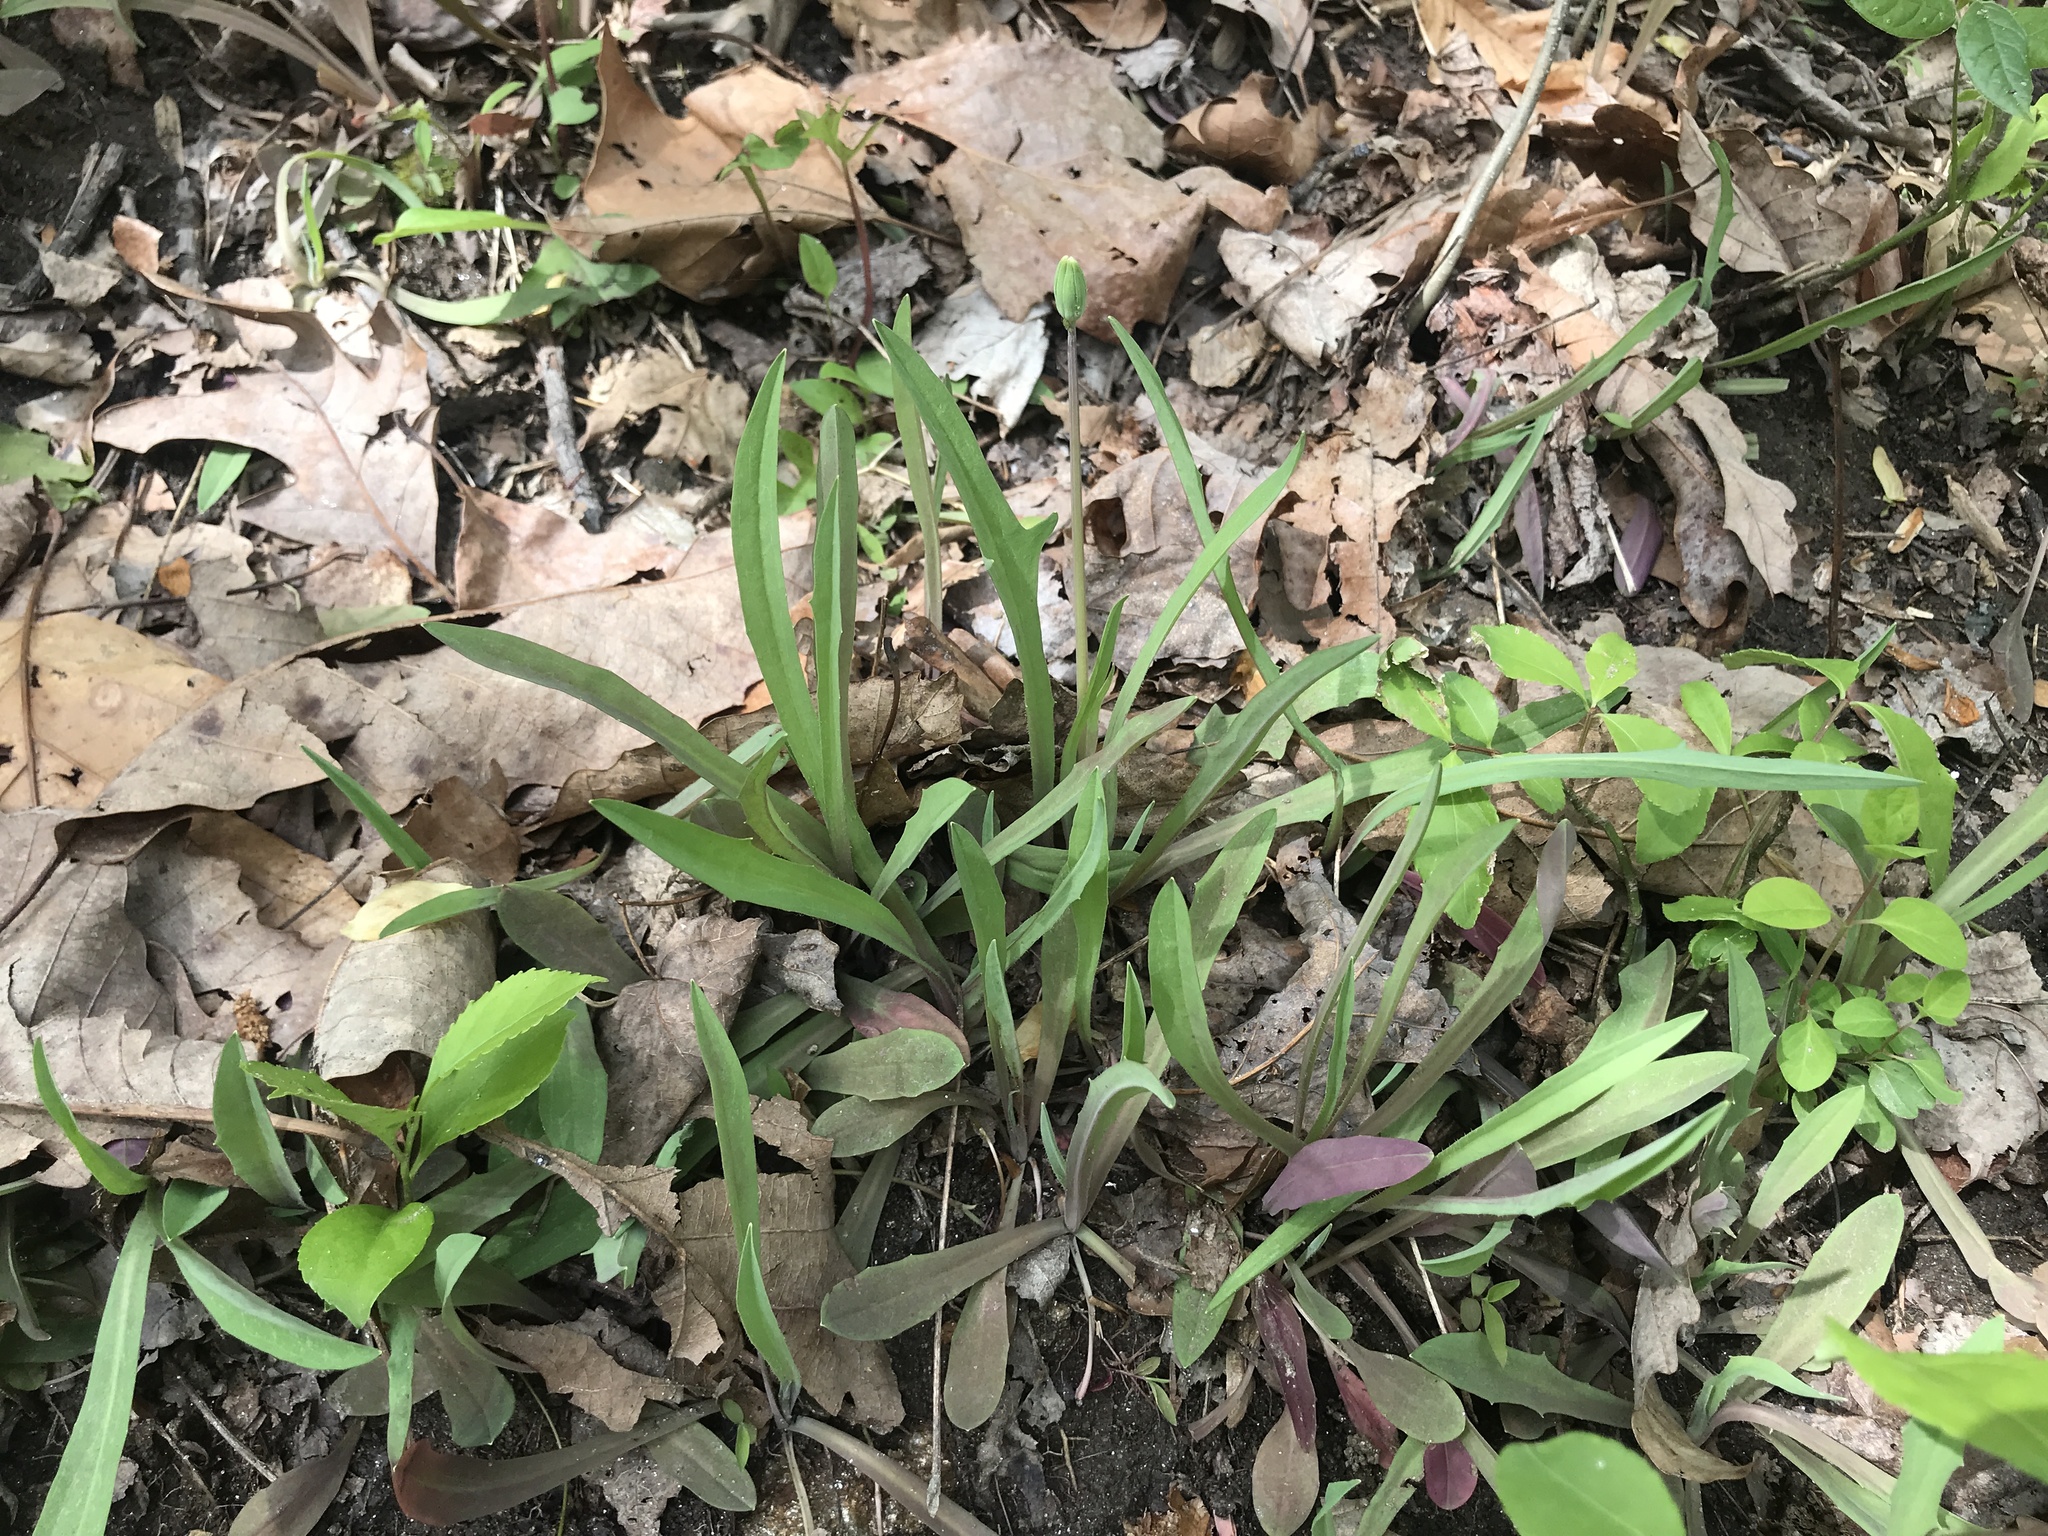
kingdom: Plantae
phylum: Tracheophyta
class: Magnoliopsida
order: Asterales
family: Asteraceae
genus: Krigia
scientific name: Krigia dandelion
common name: Colonial dwarf-dandelion
